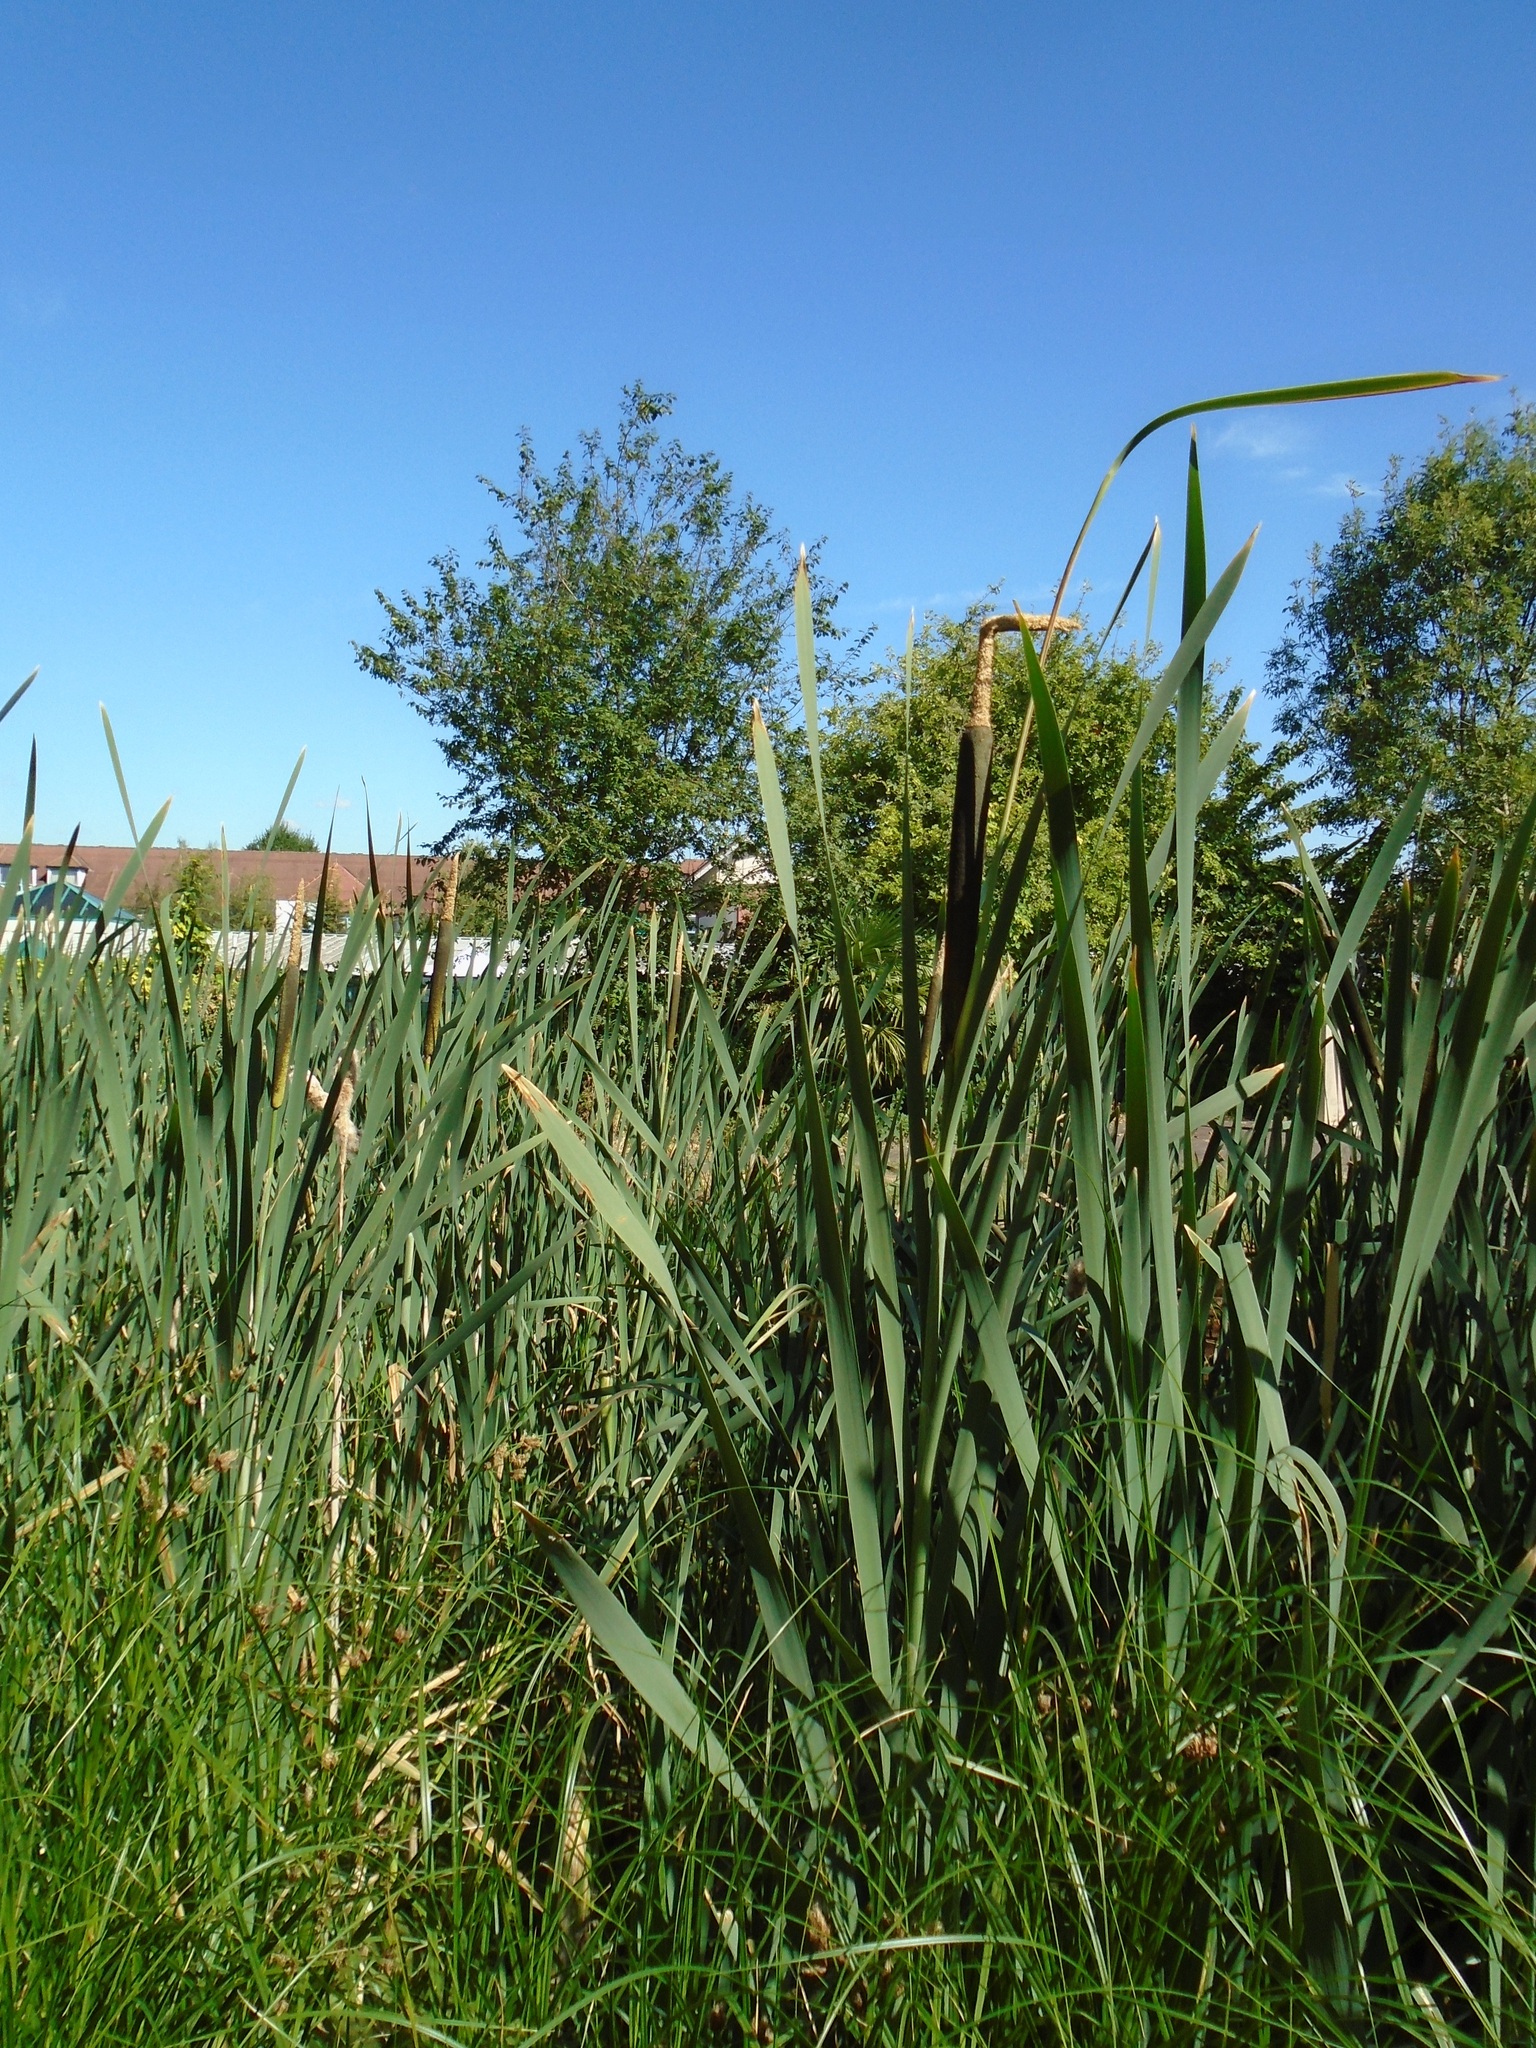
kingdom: Plantae
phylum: Tracheophyta
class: Liliopsida
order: Poales
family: Typhaceae
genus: Typha
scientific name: Typha latifolia
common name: Broadleaf cattail
